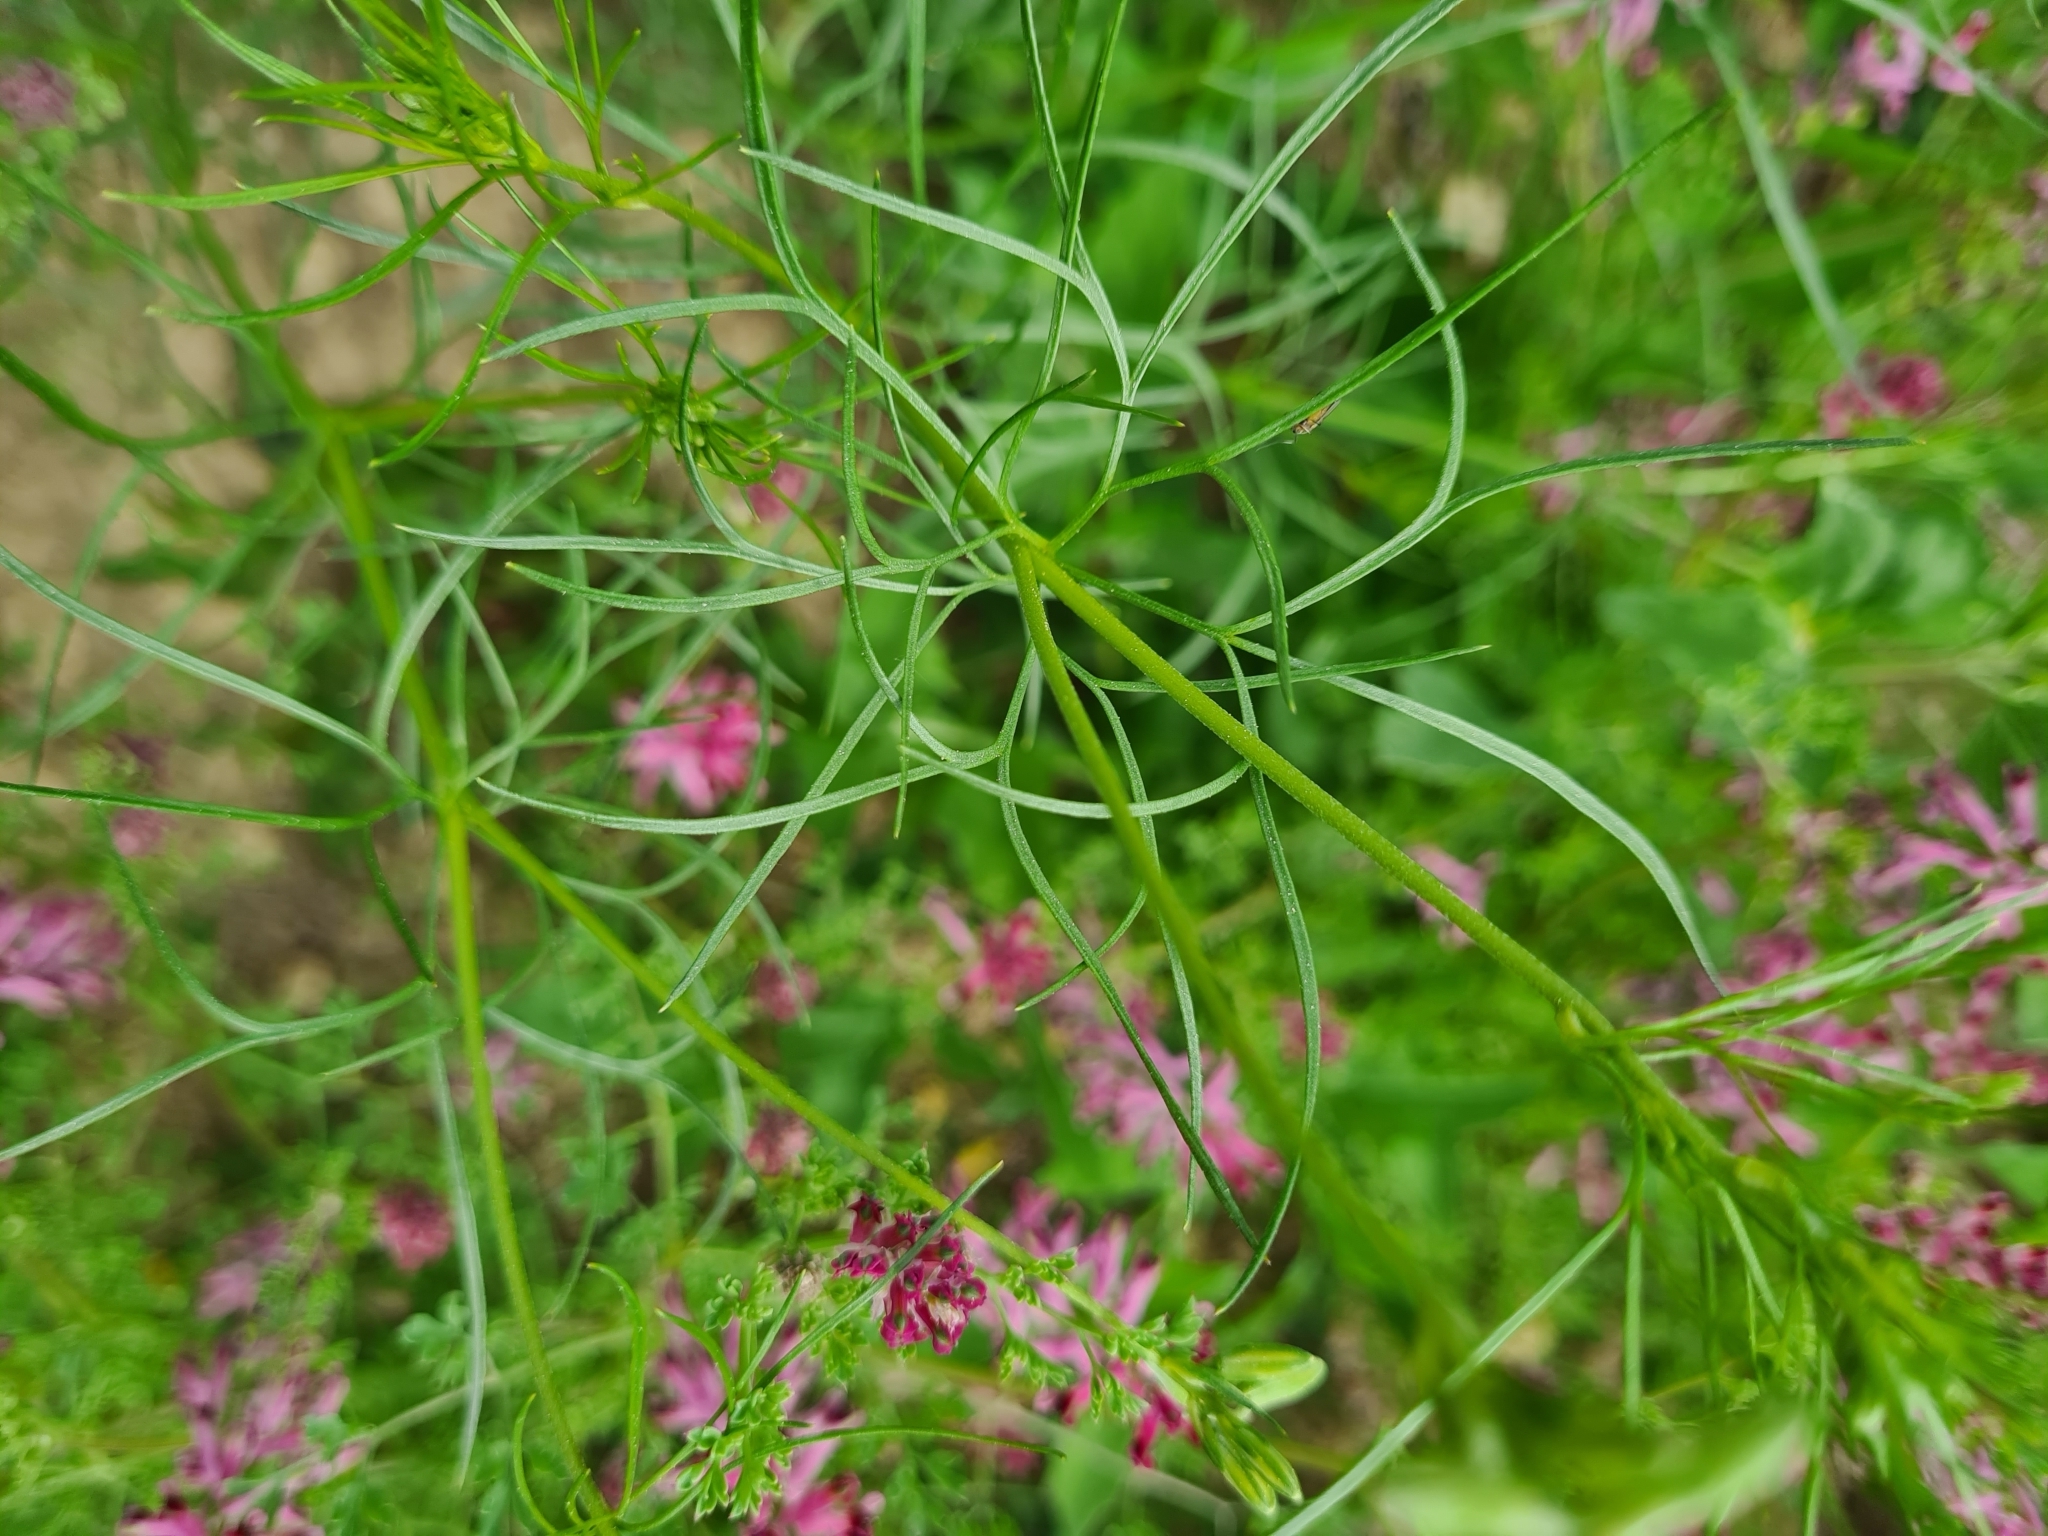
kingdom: Plantae
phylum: Tracheophyta
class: Magnoliopsida
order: Ranunculales
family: Ranunculaceae
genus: Delphinium
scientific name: Delphinium consolida
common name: Branching larkspur
